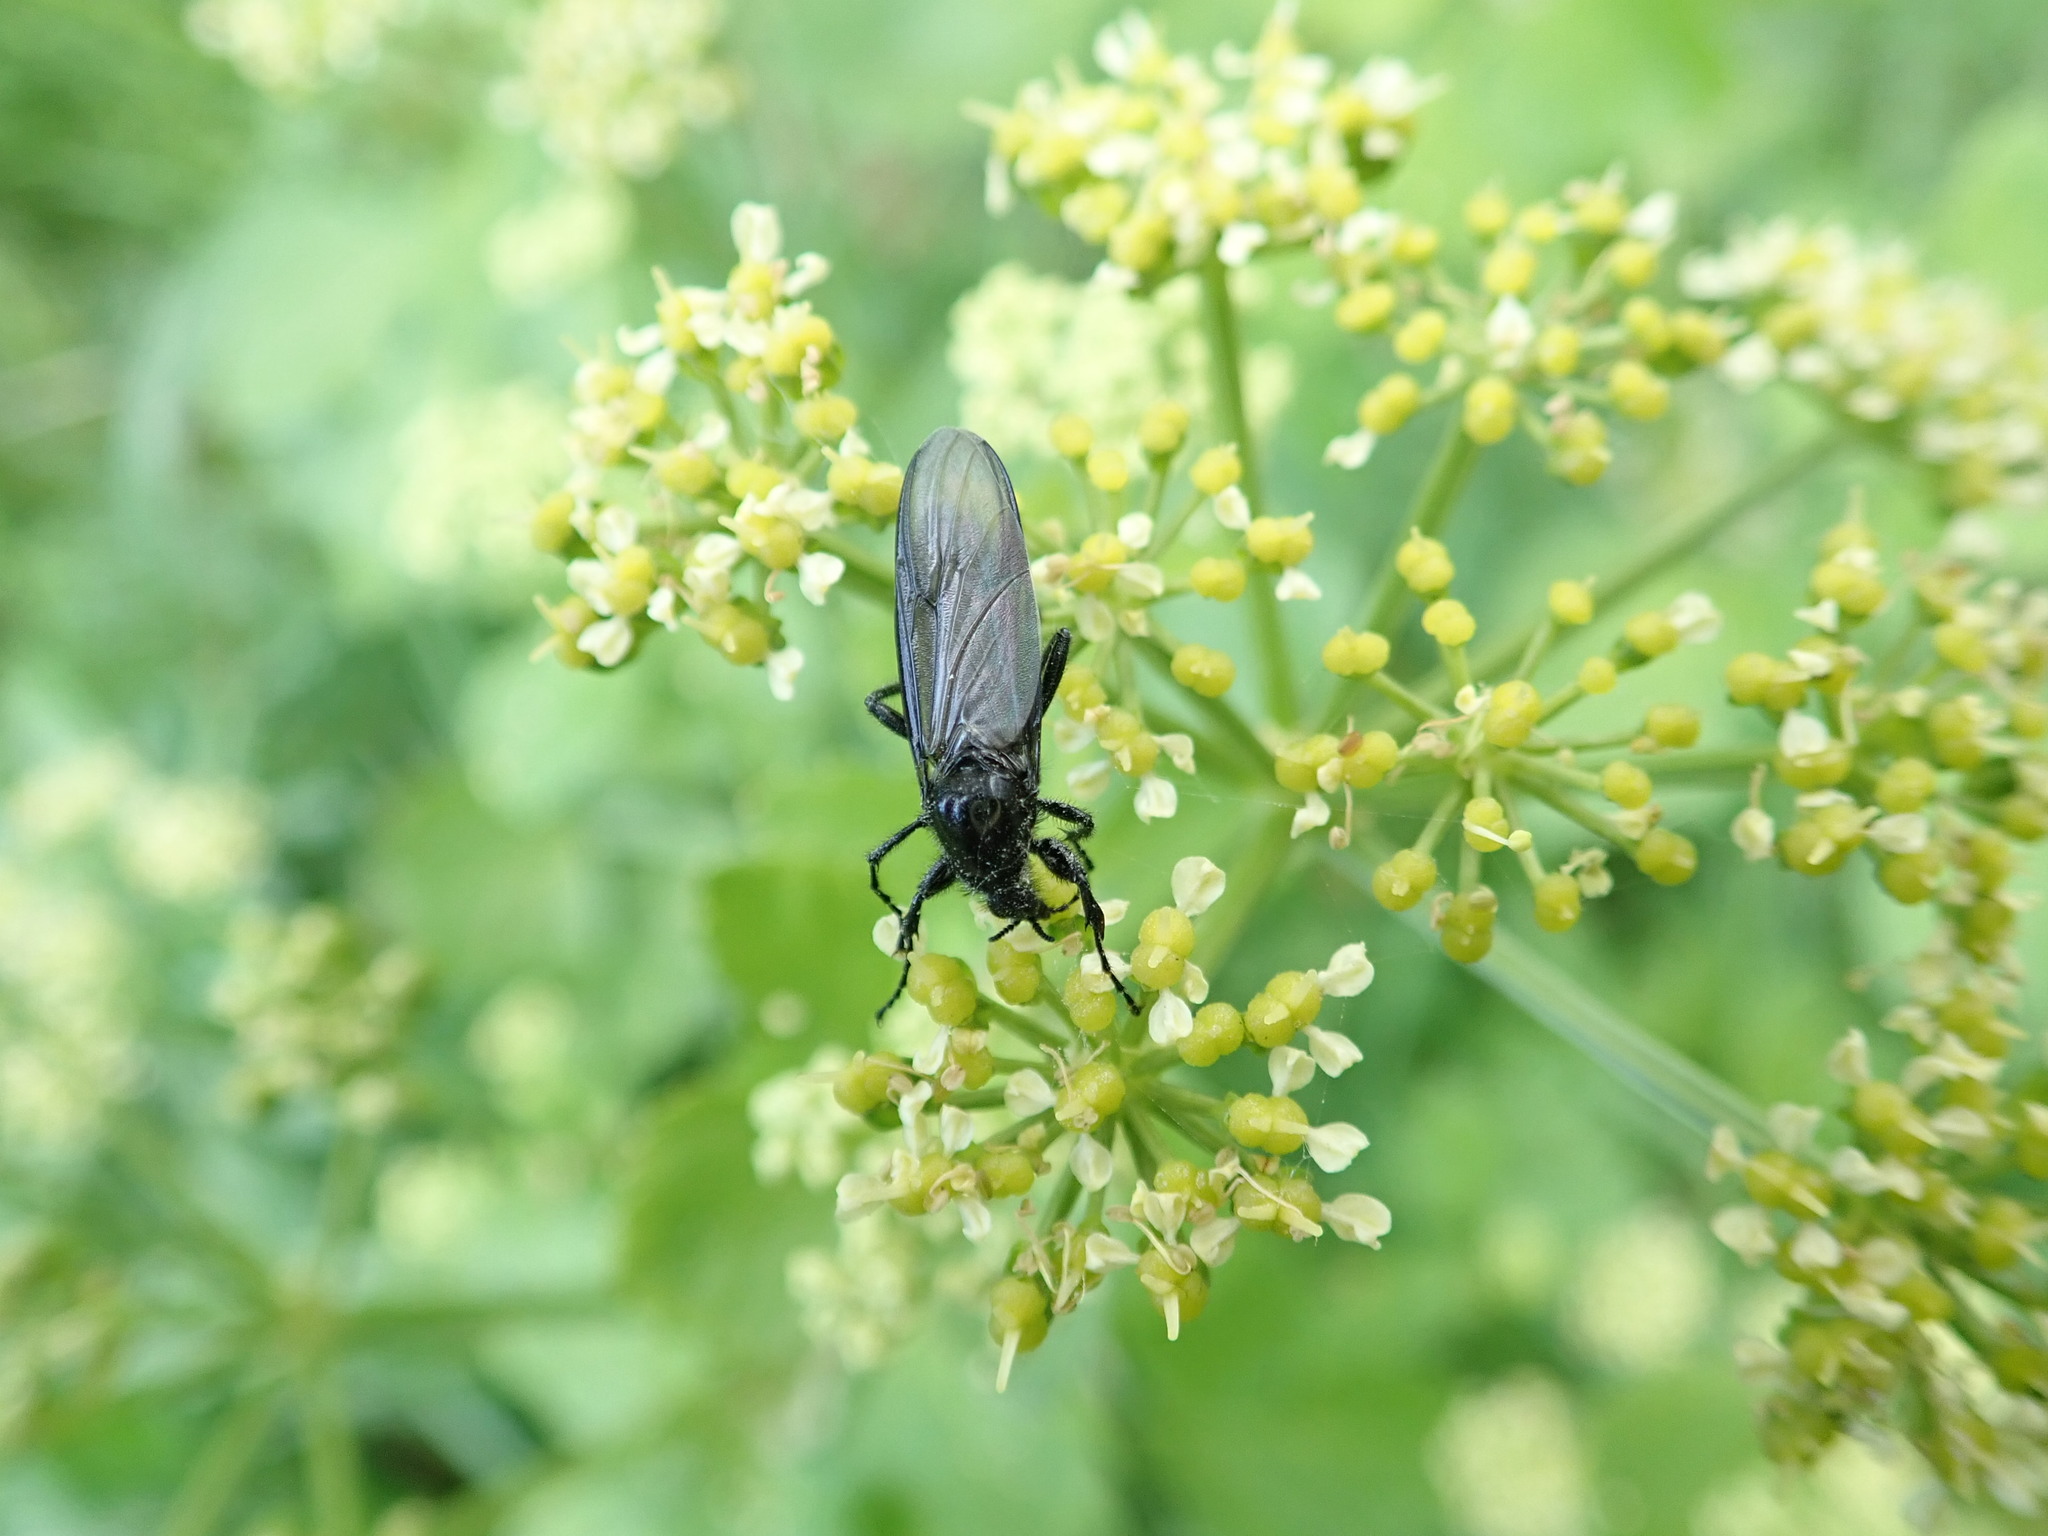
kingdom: Animalia
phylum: Arthropoda
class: Insecta
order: Diptera
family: Bibionidae
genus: Bibio
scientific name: Bibio marci
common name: St marks fly
